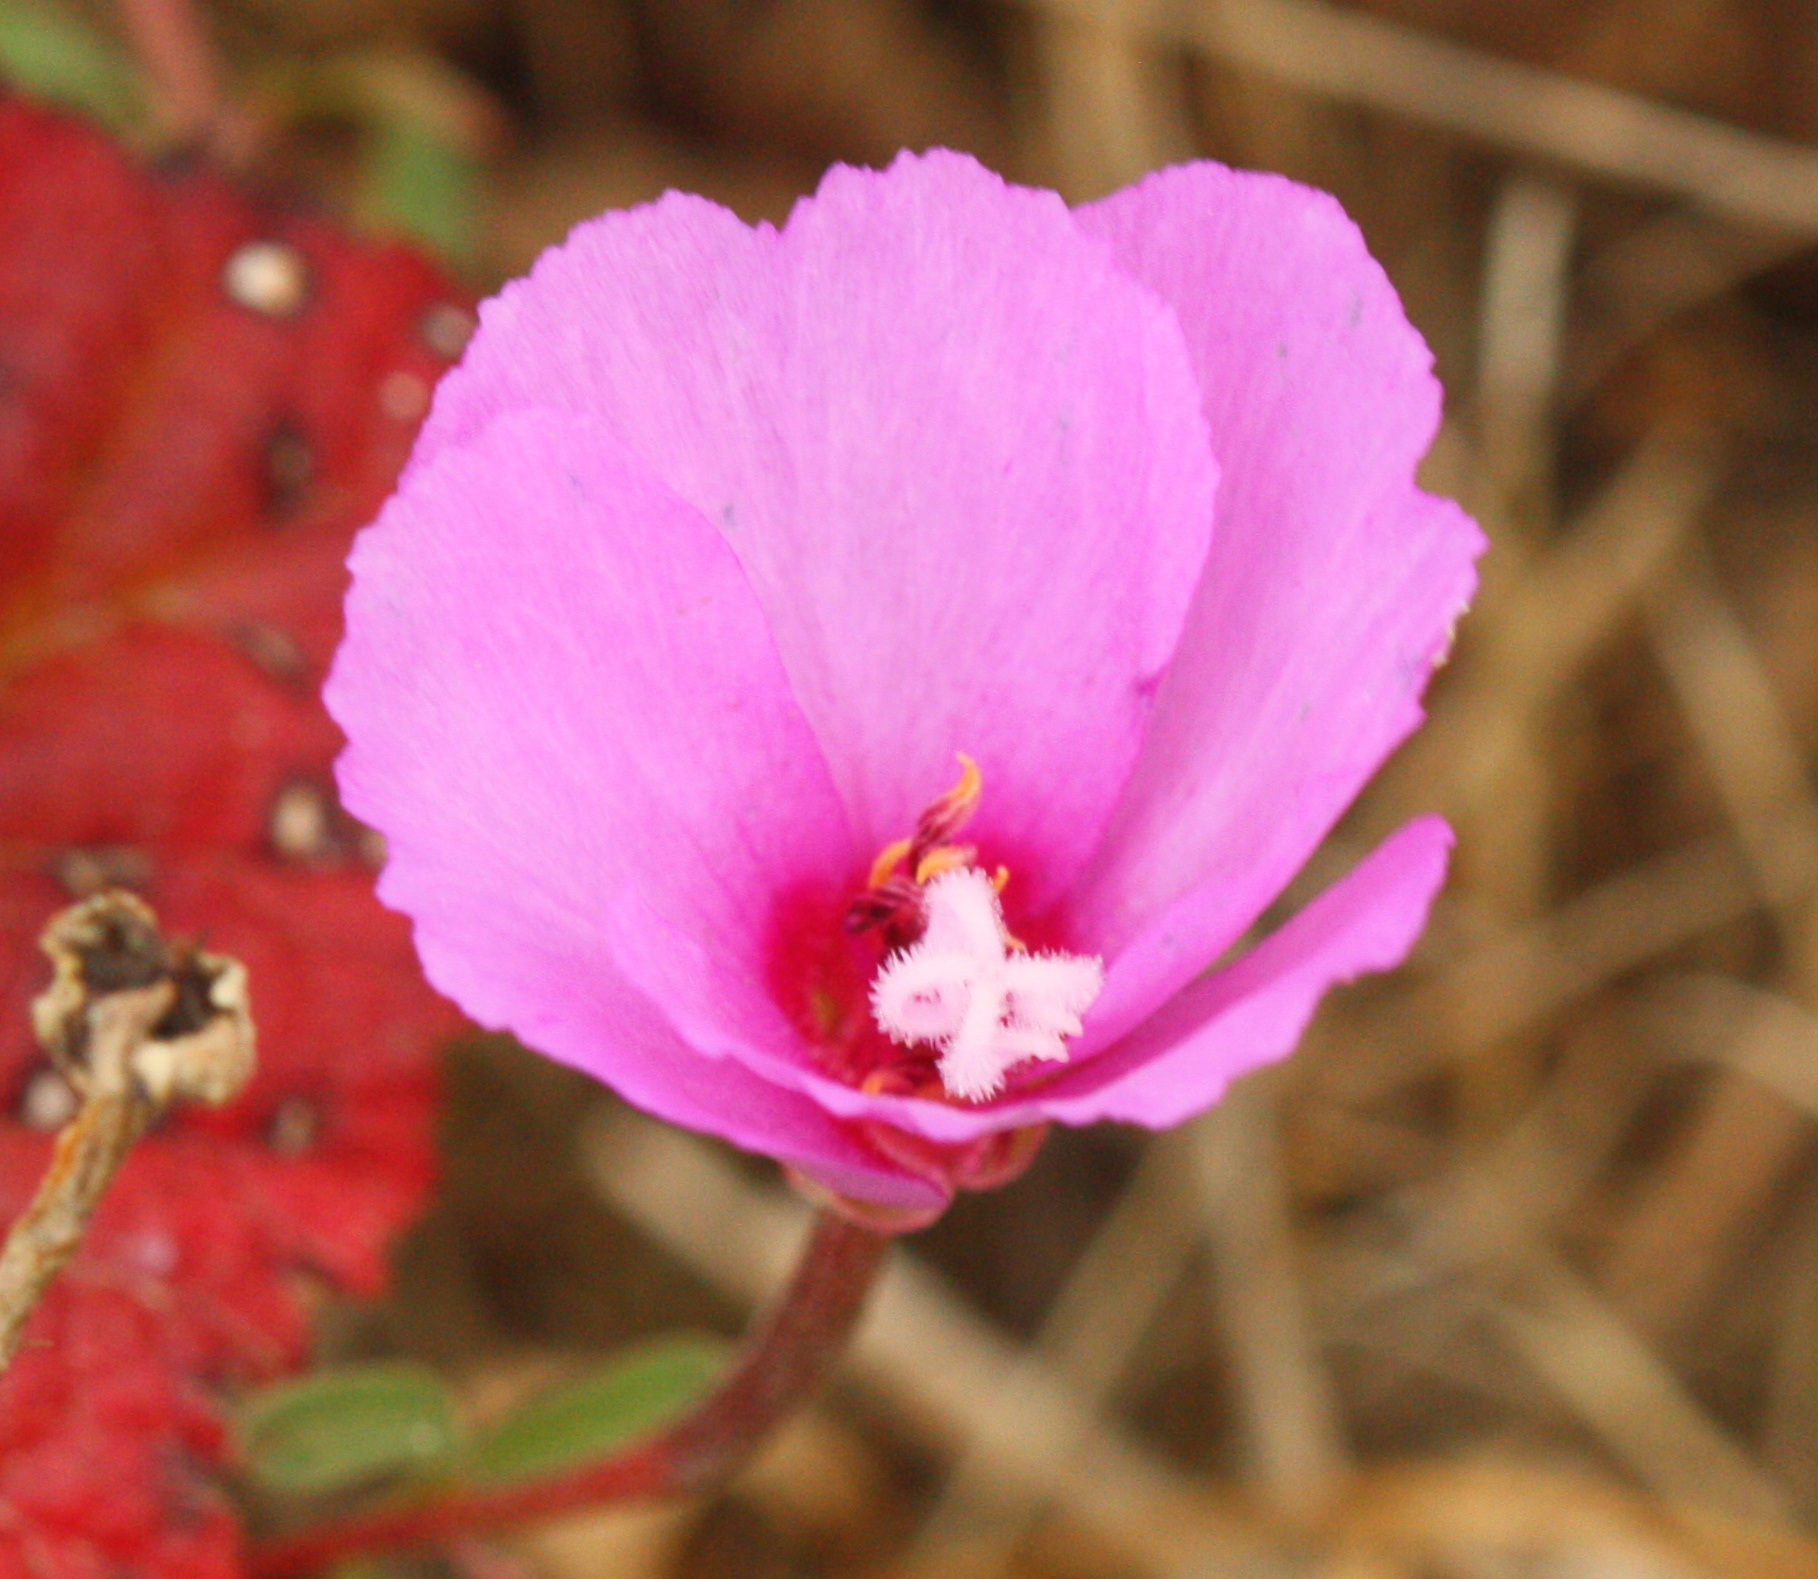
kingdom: Plantae
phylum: Tracheophyta
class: Magnoliopsida
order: Myrtales
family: Onagraceae
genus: Clarkia
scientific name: Clarkia rubicunda
